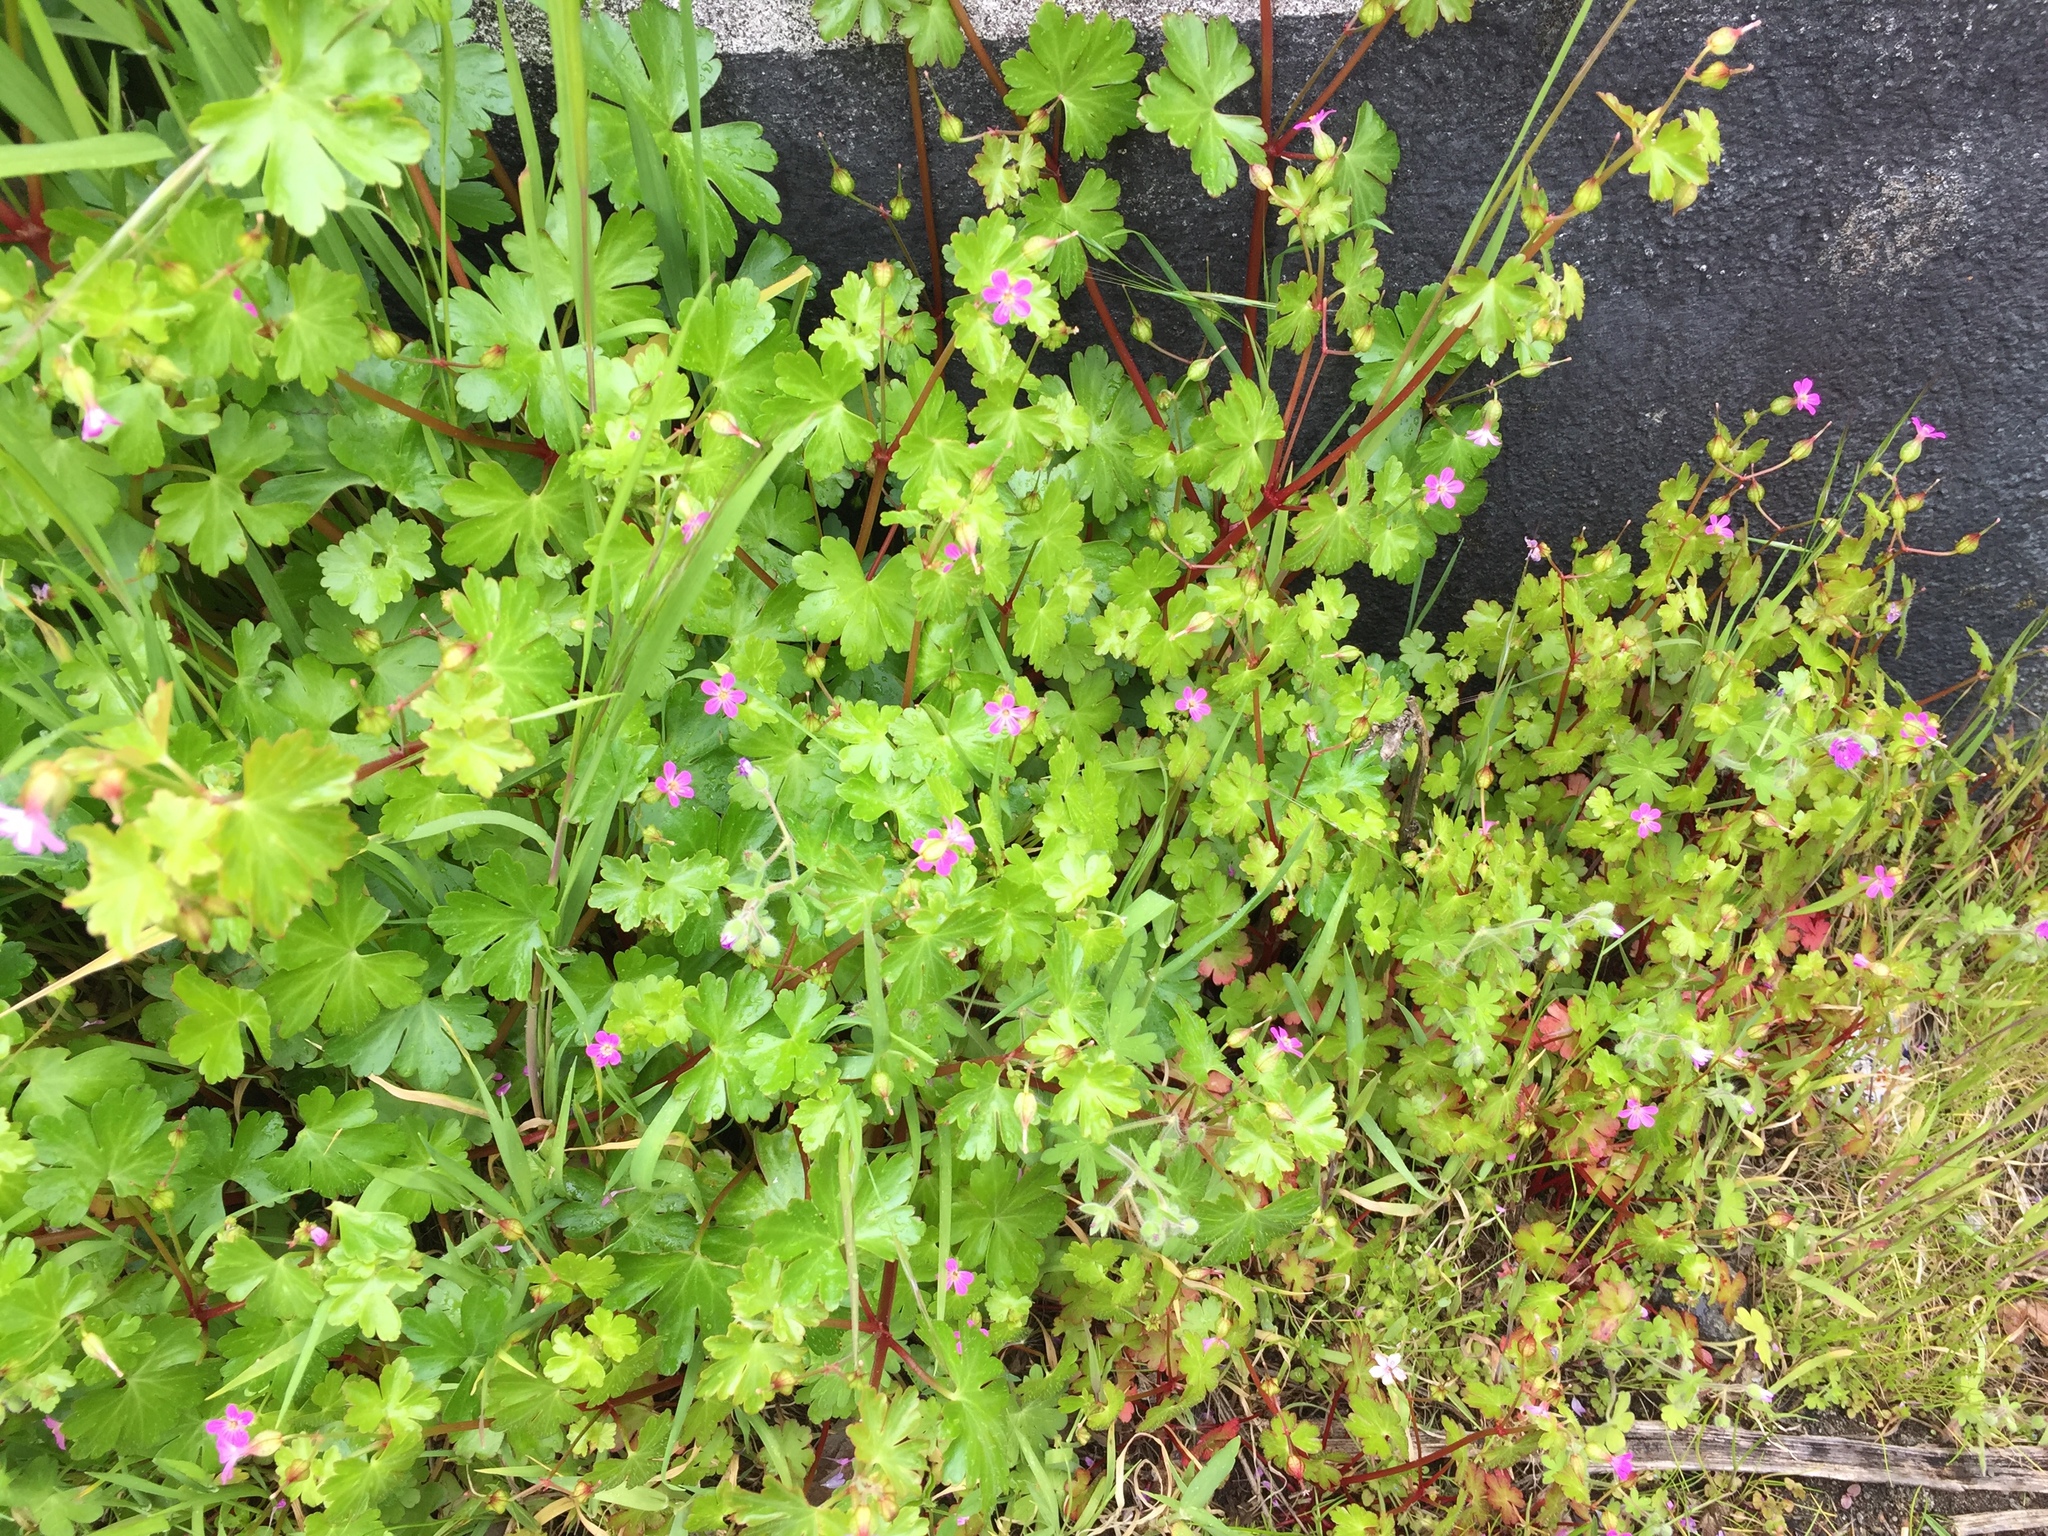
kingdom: Plantae
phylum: Tracheophyta
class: Magnoliopsida
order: Geraniales
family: Geraniaceae
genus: Geranium
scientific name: Geranium lucidum
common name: Shining crane's-bill
